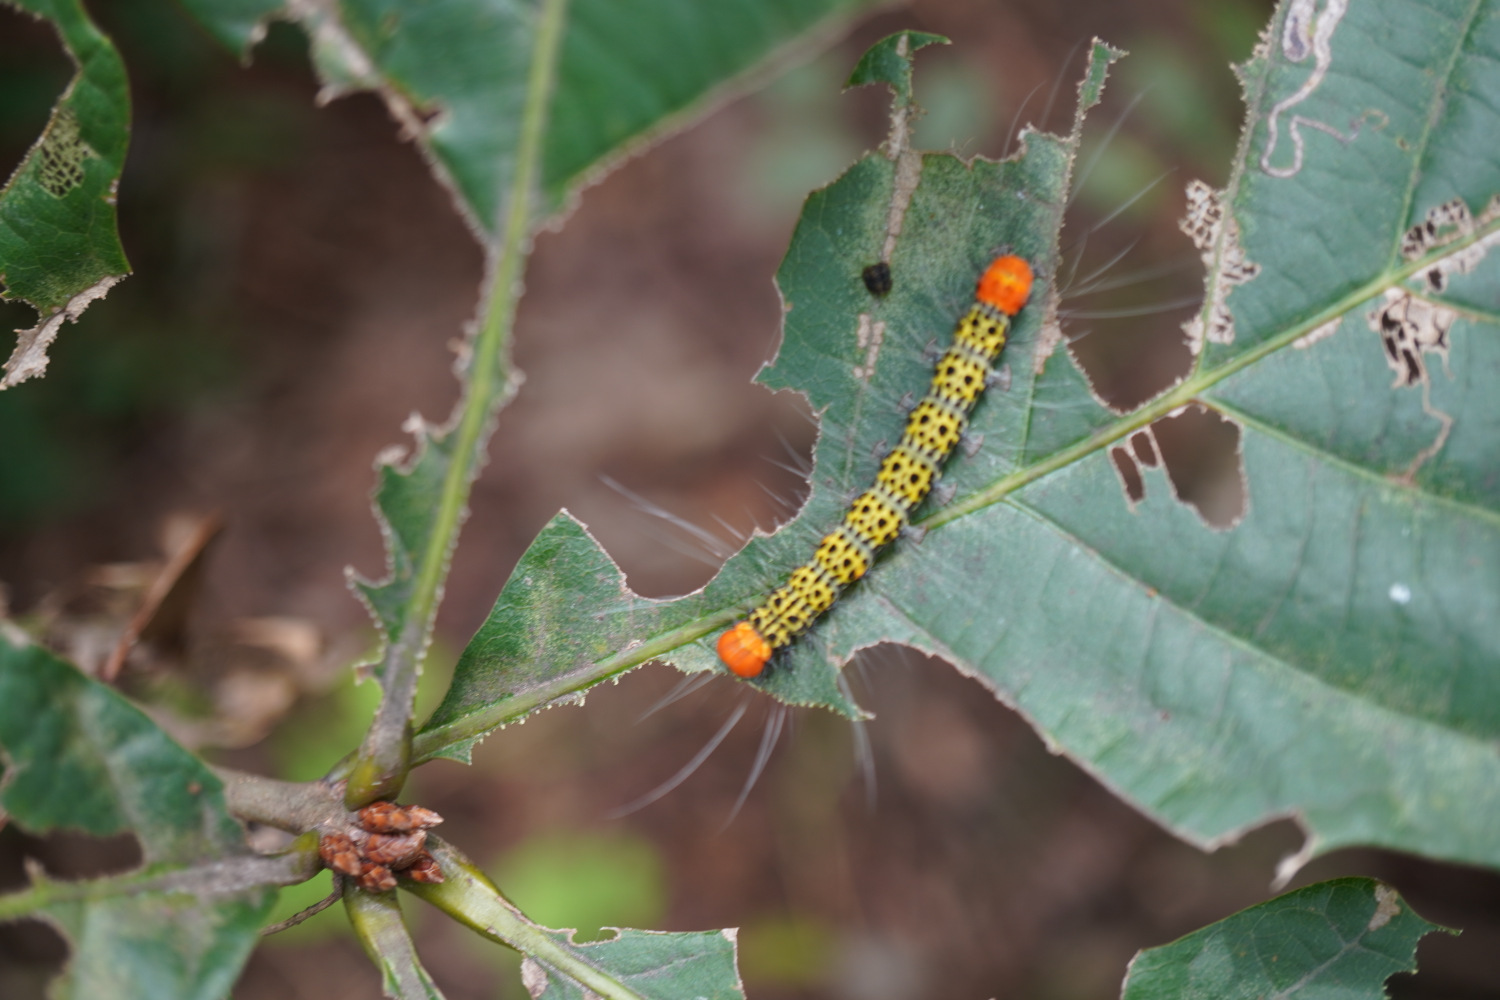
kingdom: Animalia
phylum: Arthropoda
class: Insecta
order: Lepidoptera
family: Nolidae
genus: Agrisius
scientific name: Agrisius fuliginosus
